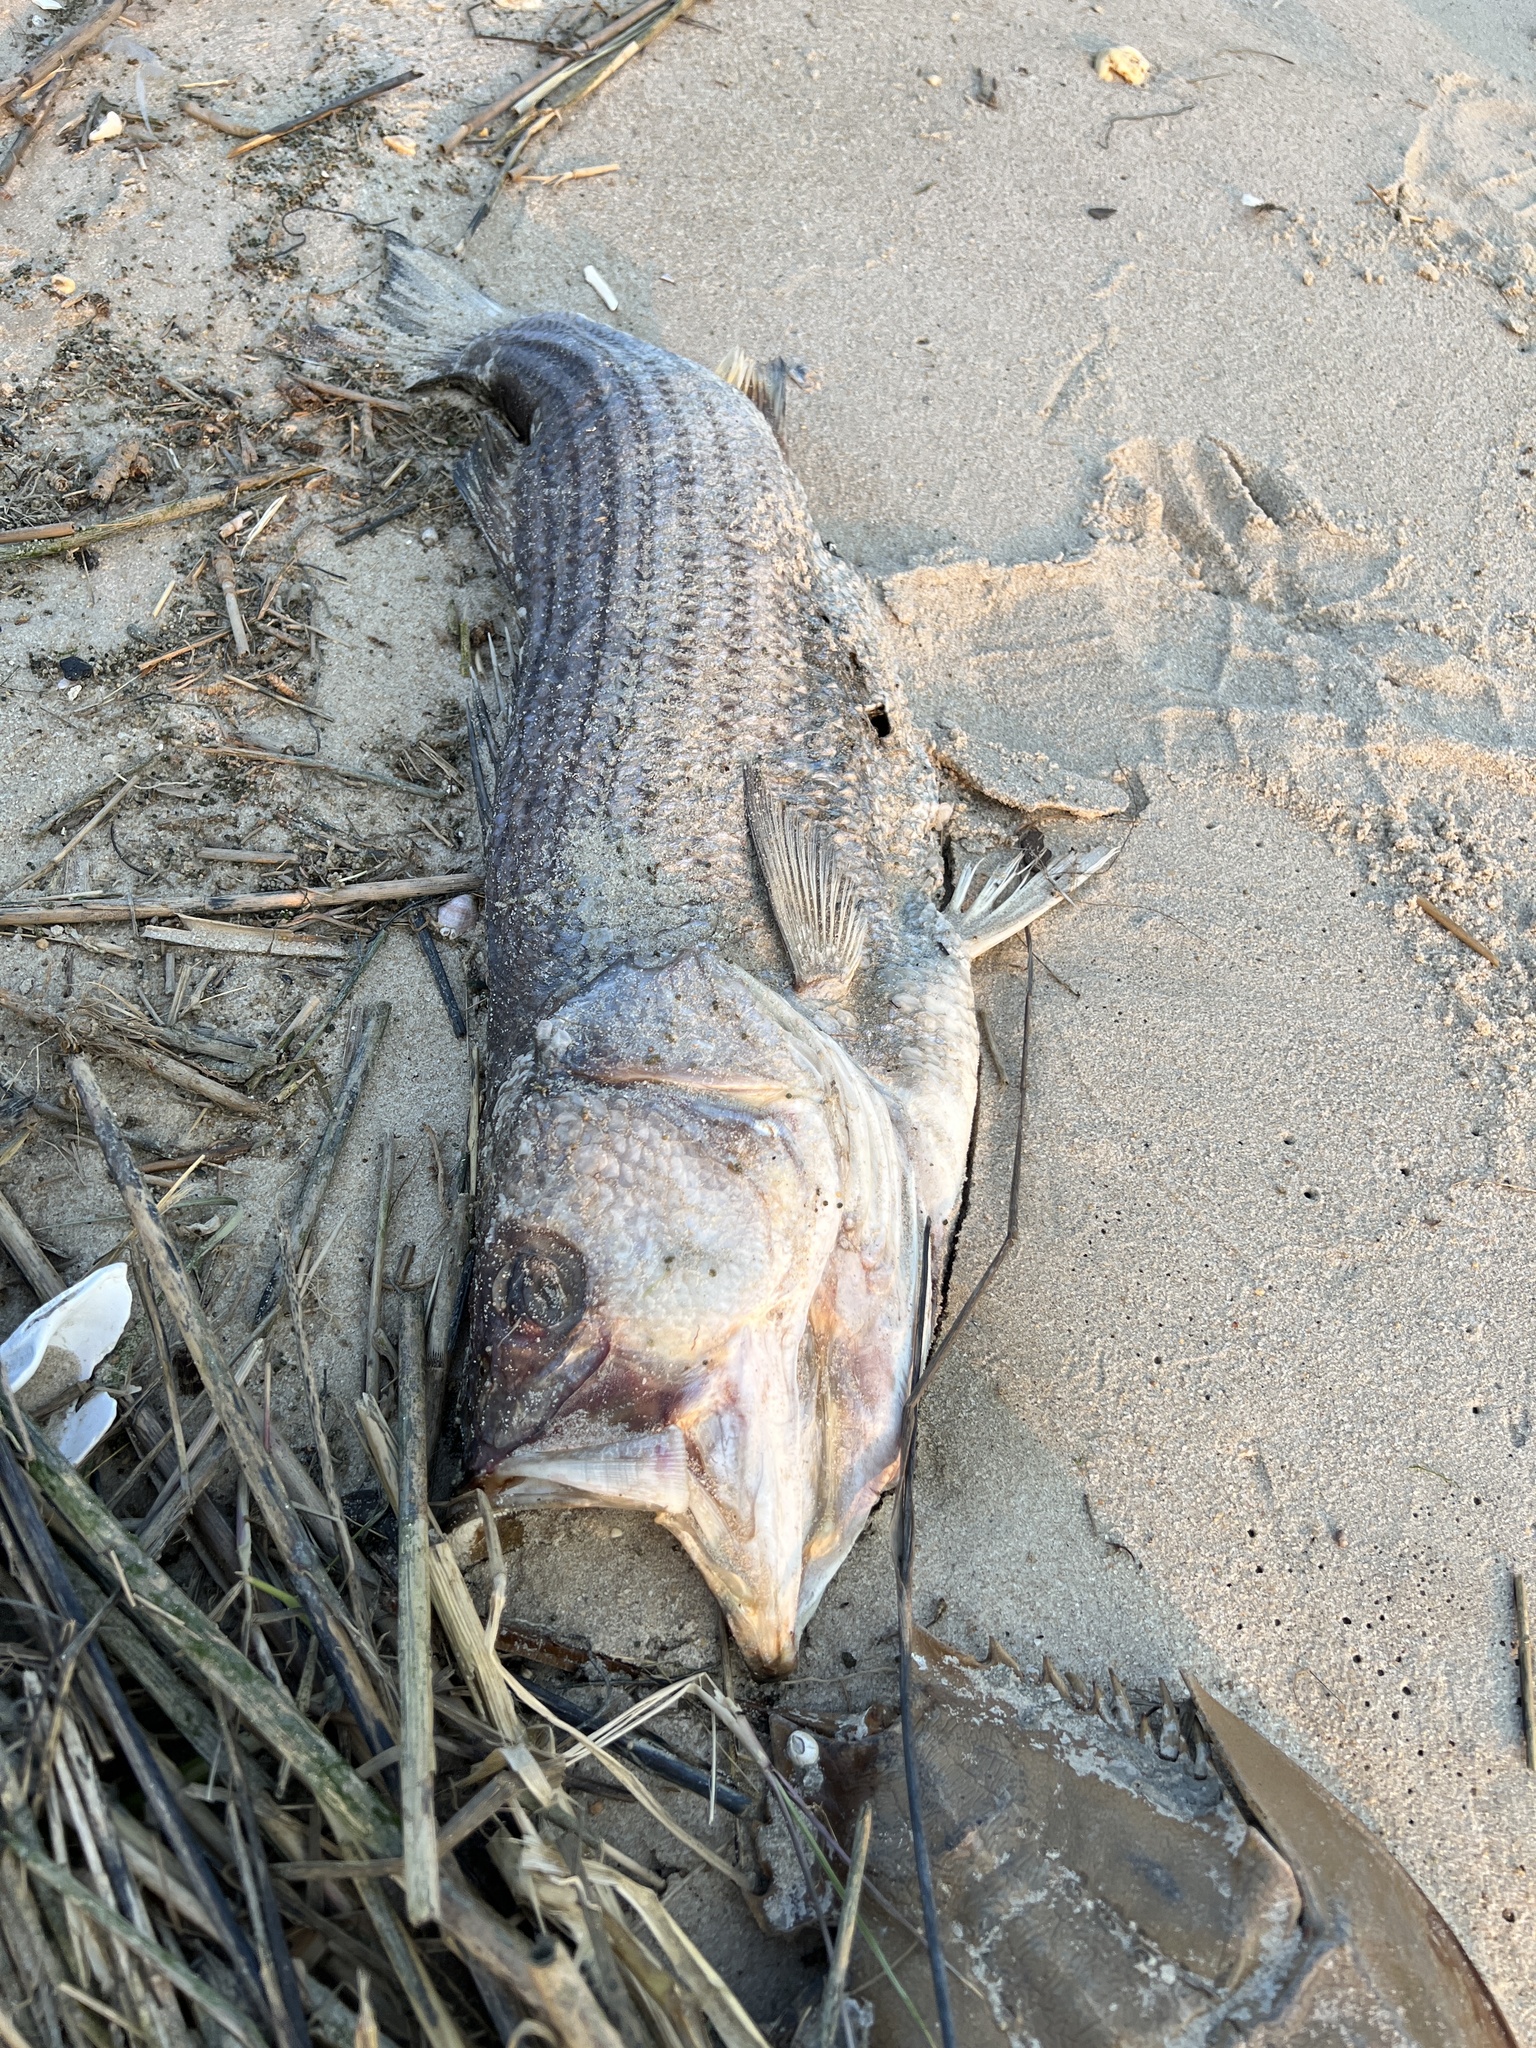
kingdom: Animalia
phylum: Chordata
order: Perciformes
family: Moronidae
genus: Morone
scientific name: Morone saxatilis
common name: Striped bass
